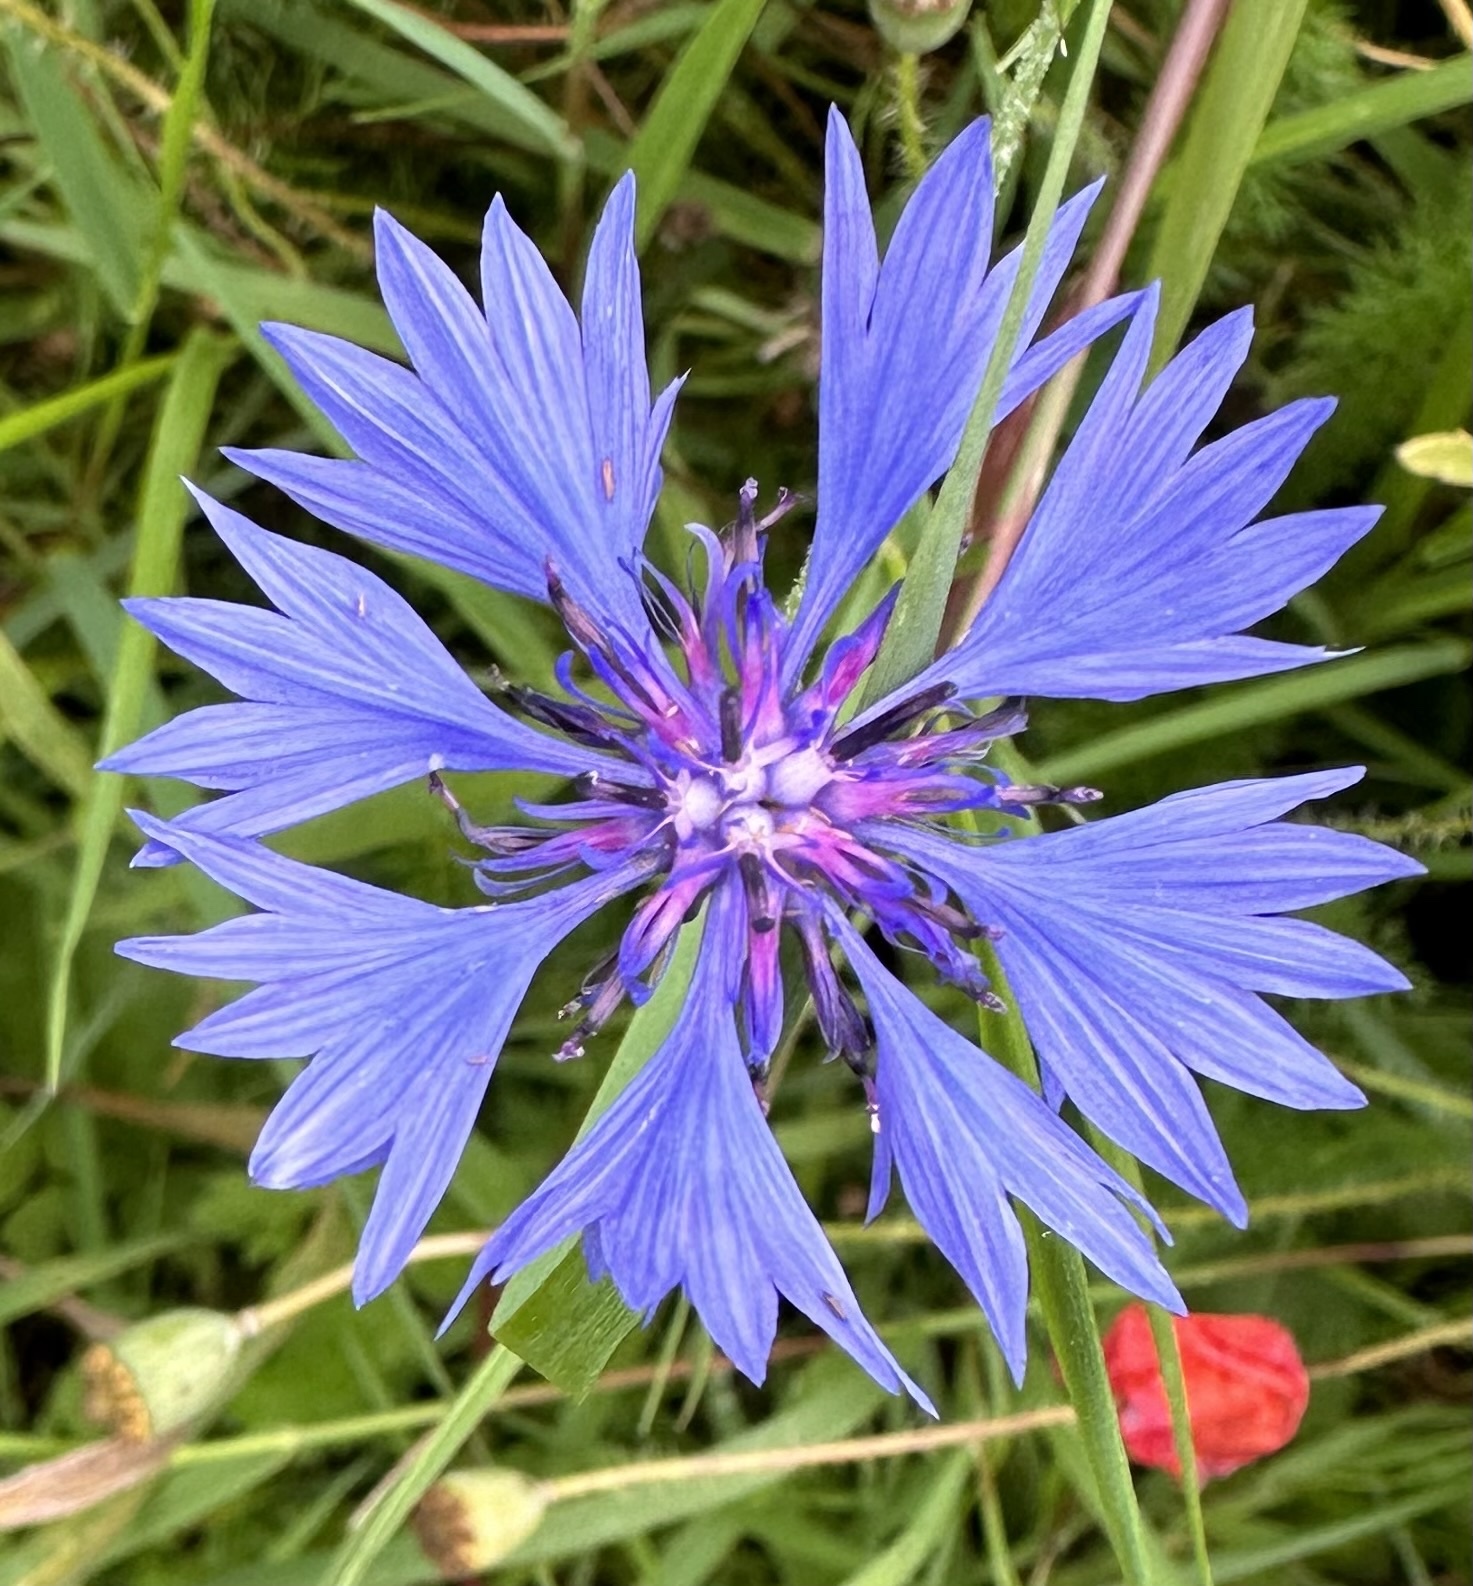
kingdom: Plantae
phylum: Tracheophyta
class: Magnoliopsida
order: Asterales
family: Asteraceae
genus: Centaurea
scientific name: Centaurea cyanus
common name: Cornflower
